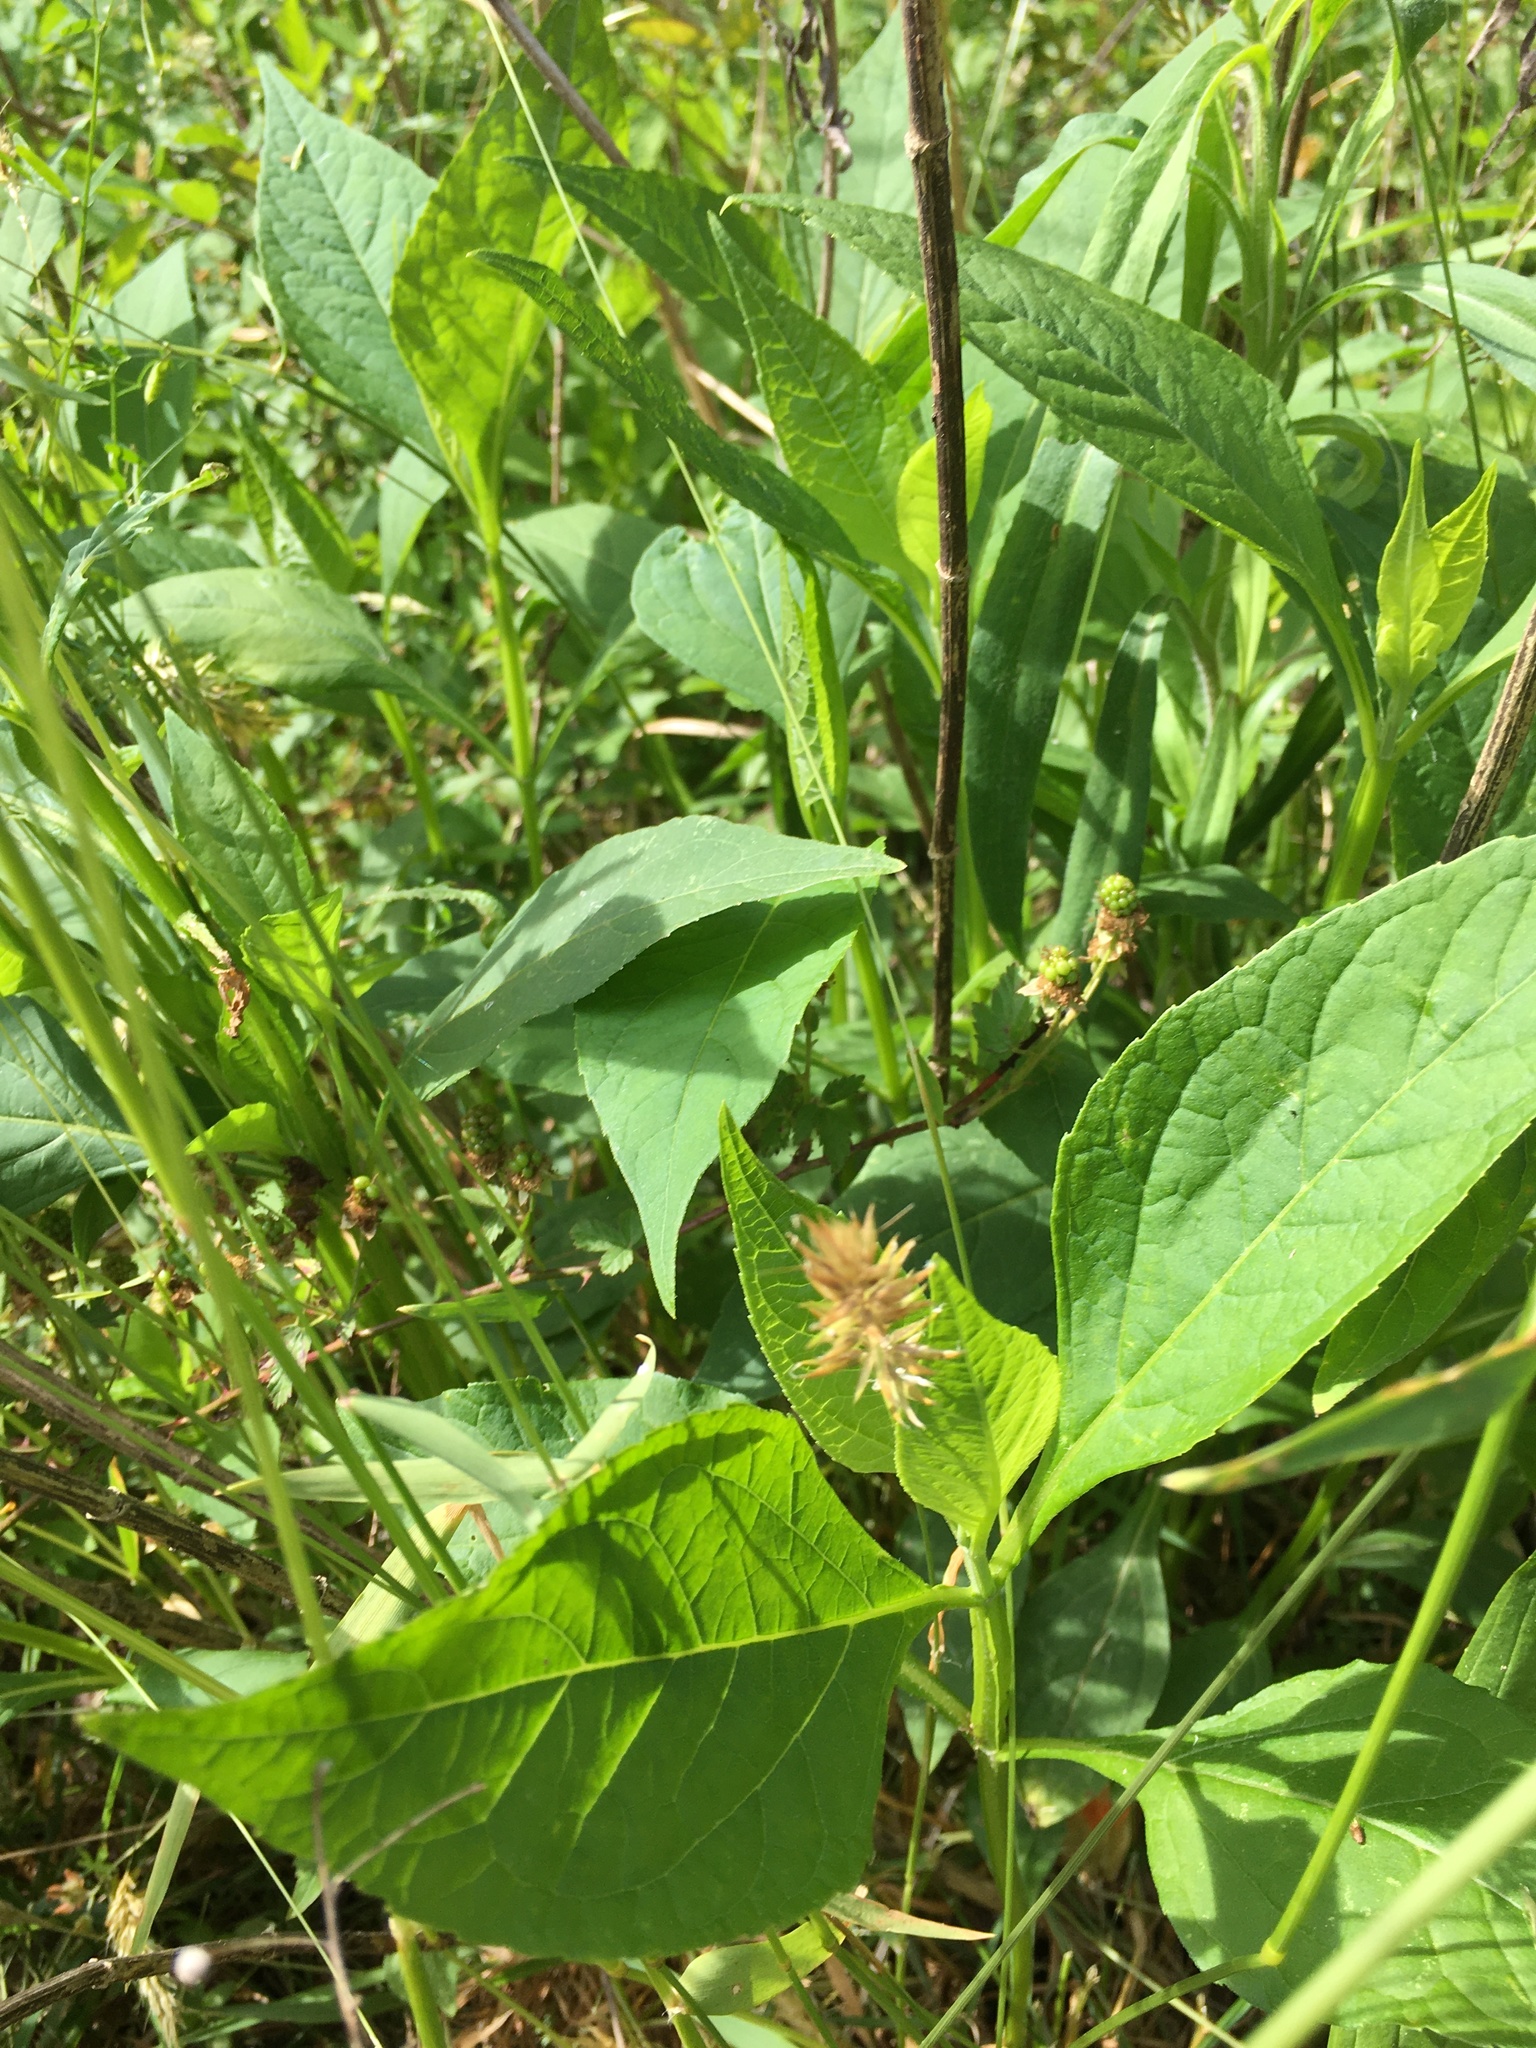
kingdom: Plantae
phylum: Tracheophyta
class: Magnoliopsida
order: Asterales
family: Asteraceae
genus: Verbesina
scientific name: Verbesina occidentalis
